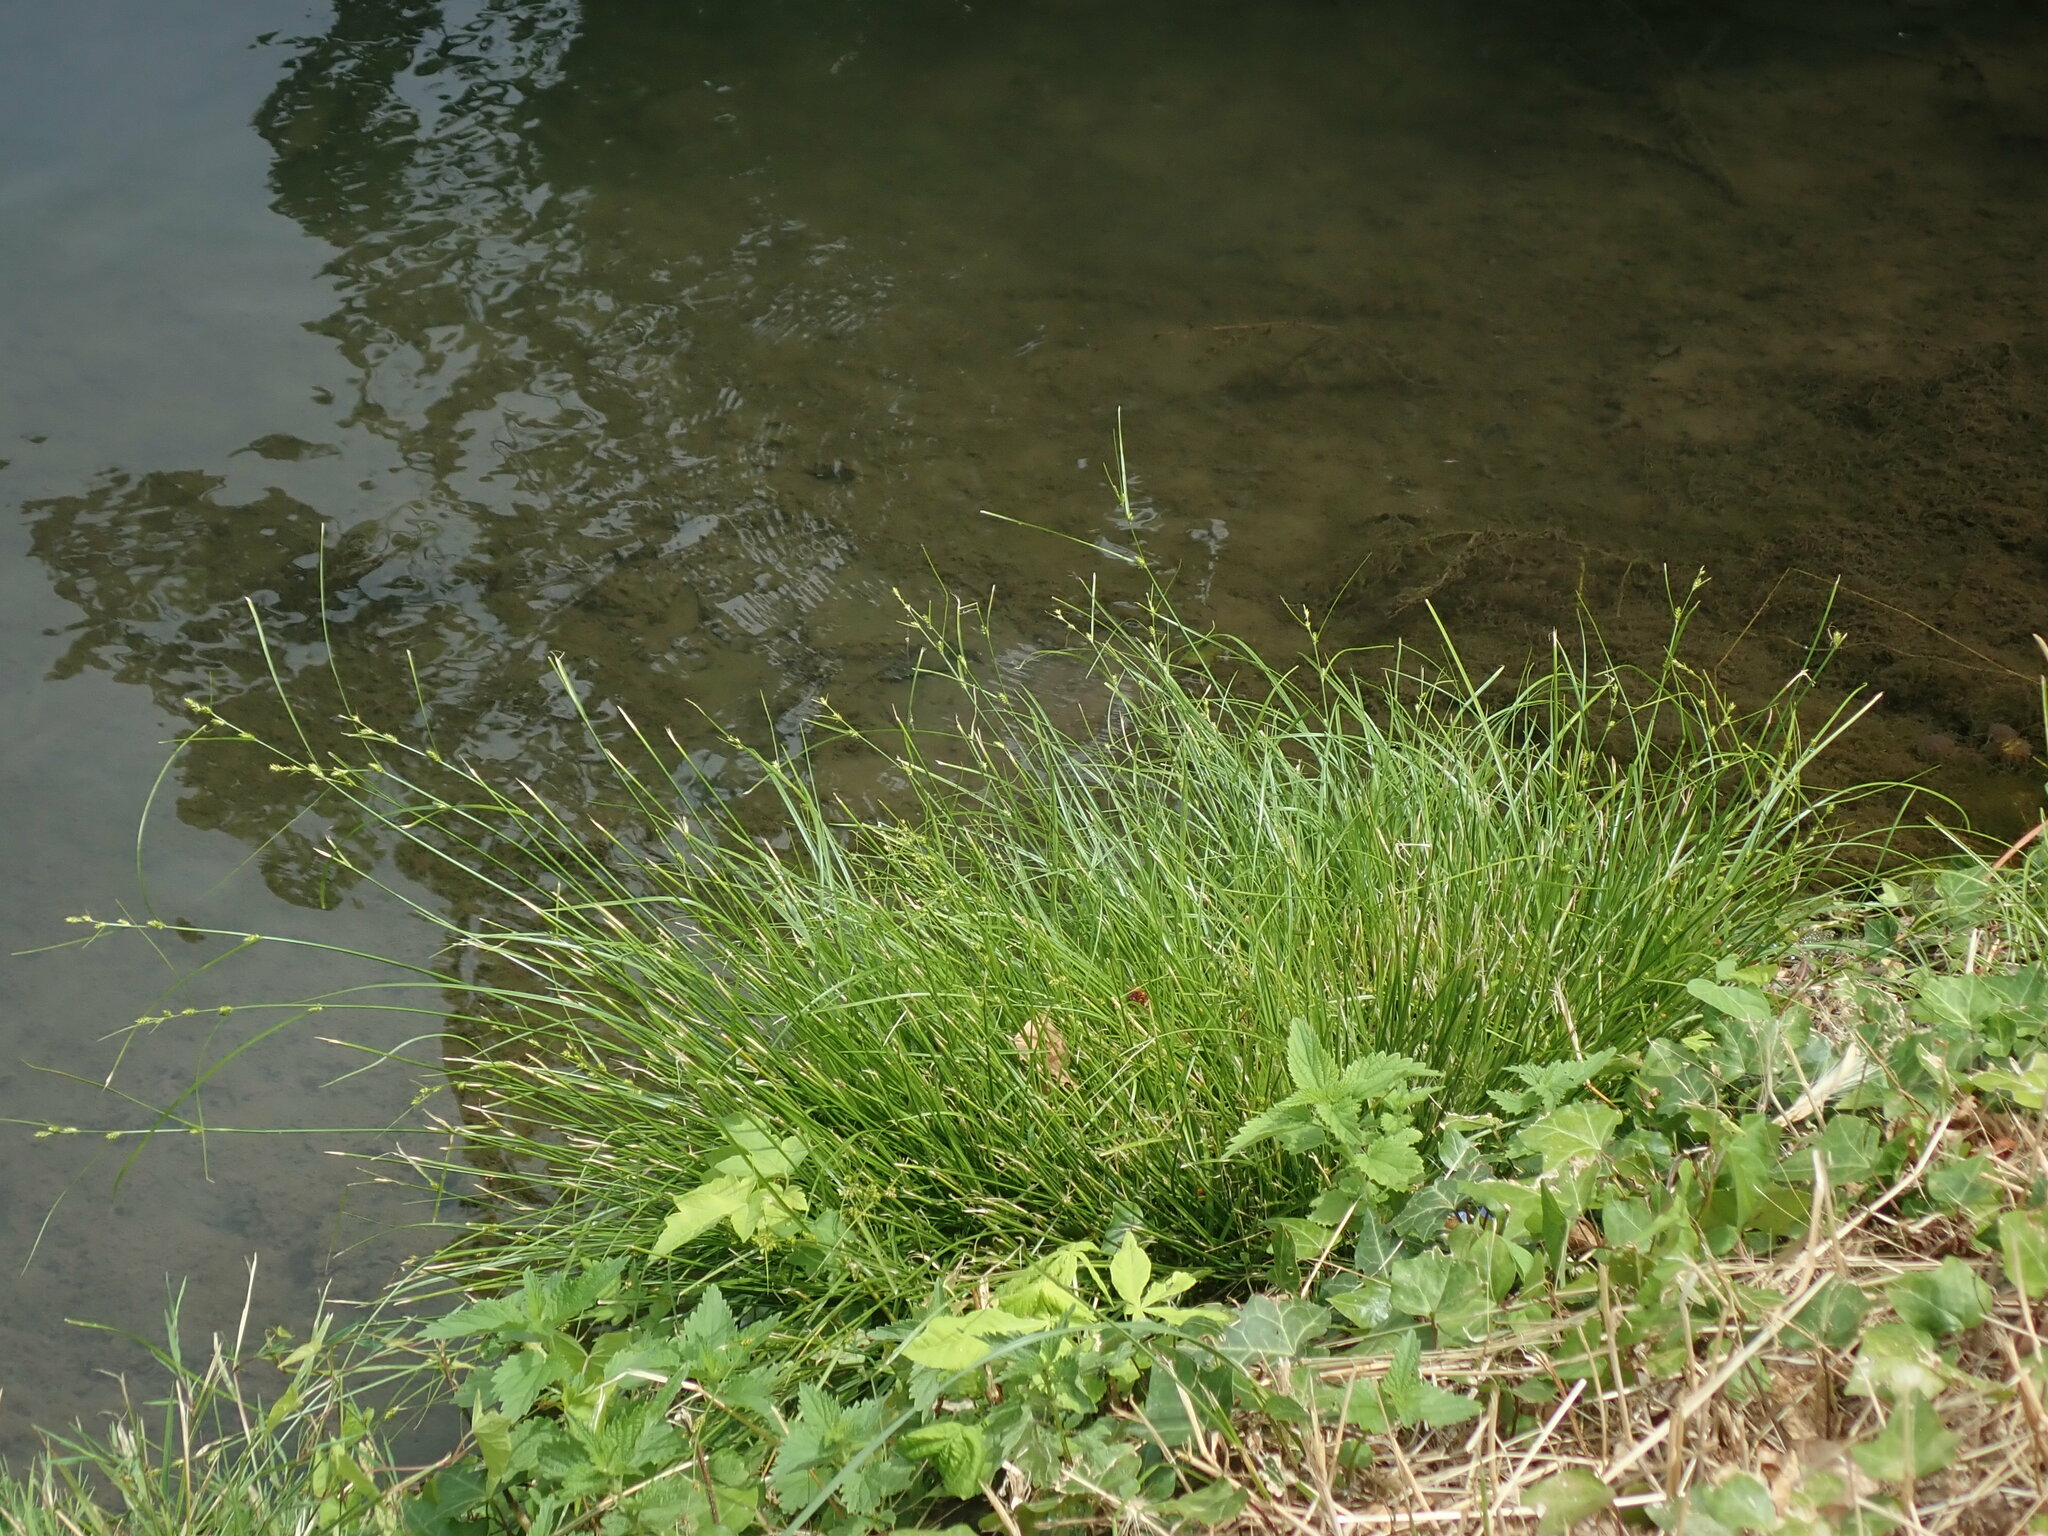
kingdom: Plantae
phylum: Tracheophyta
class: Liliopsida
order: Poales
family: Cyperaceae
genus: Carex
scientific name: Carex remota
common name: Remote sedge
